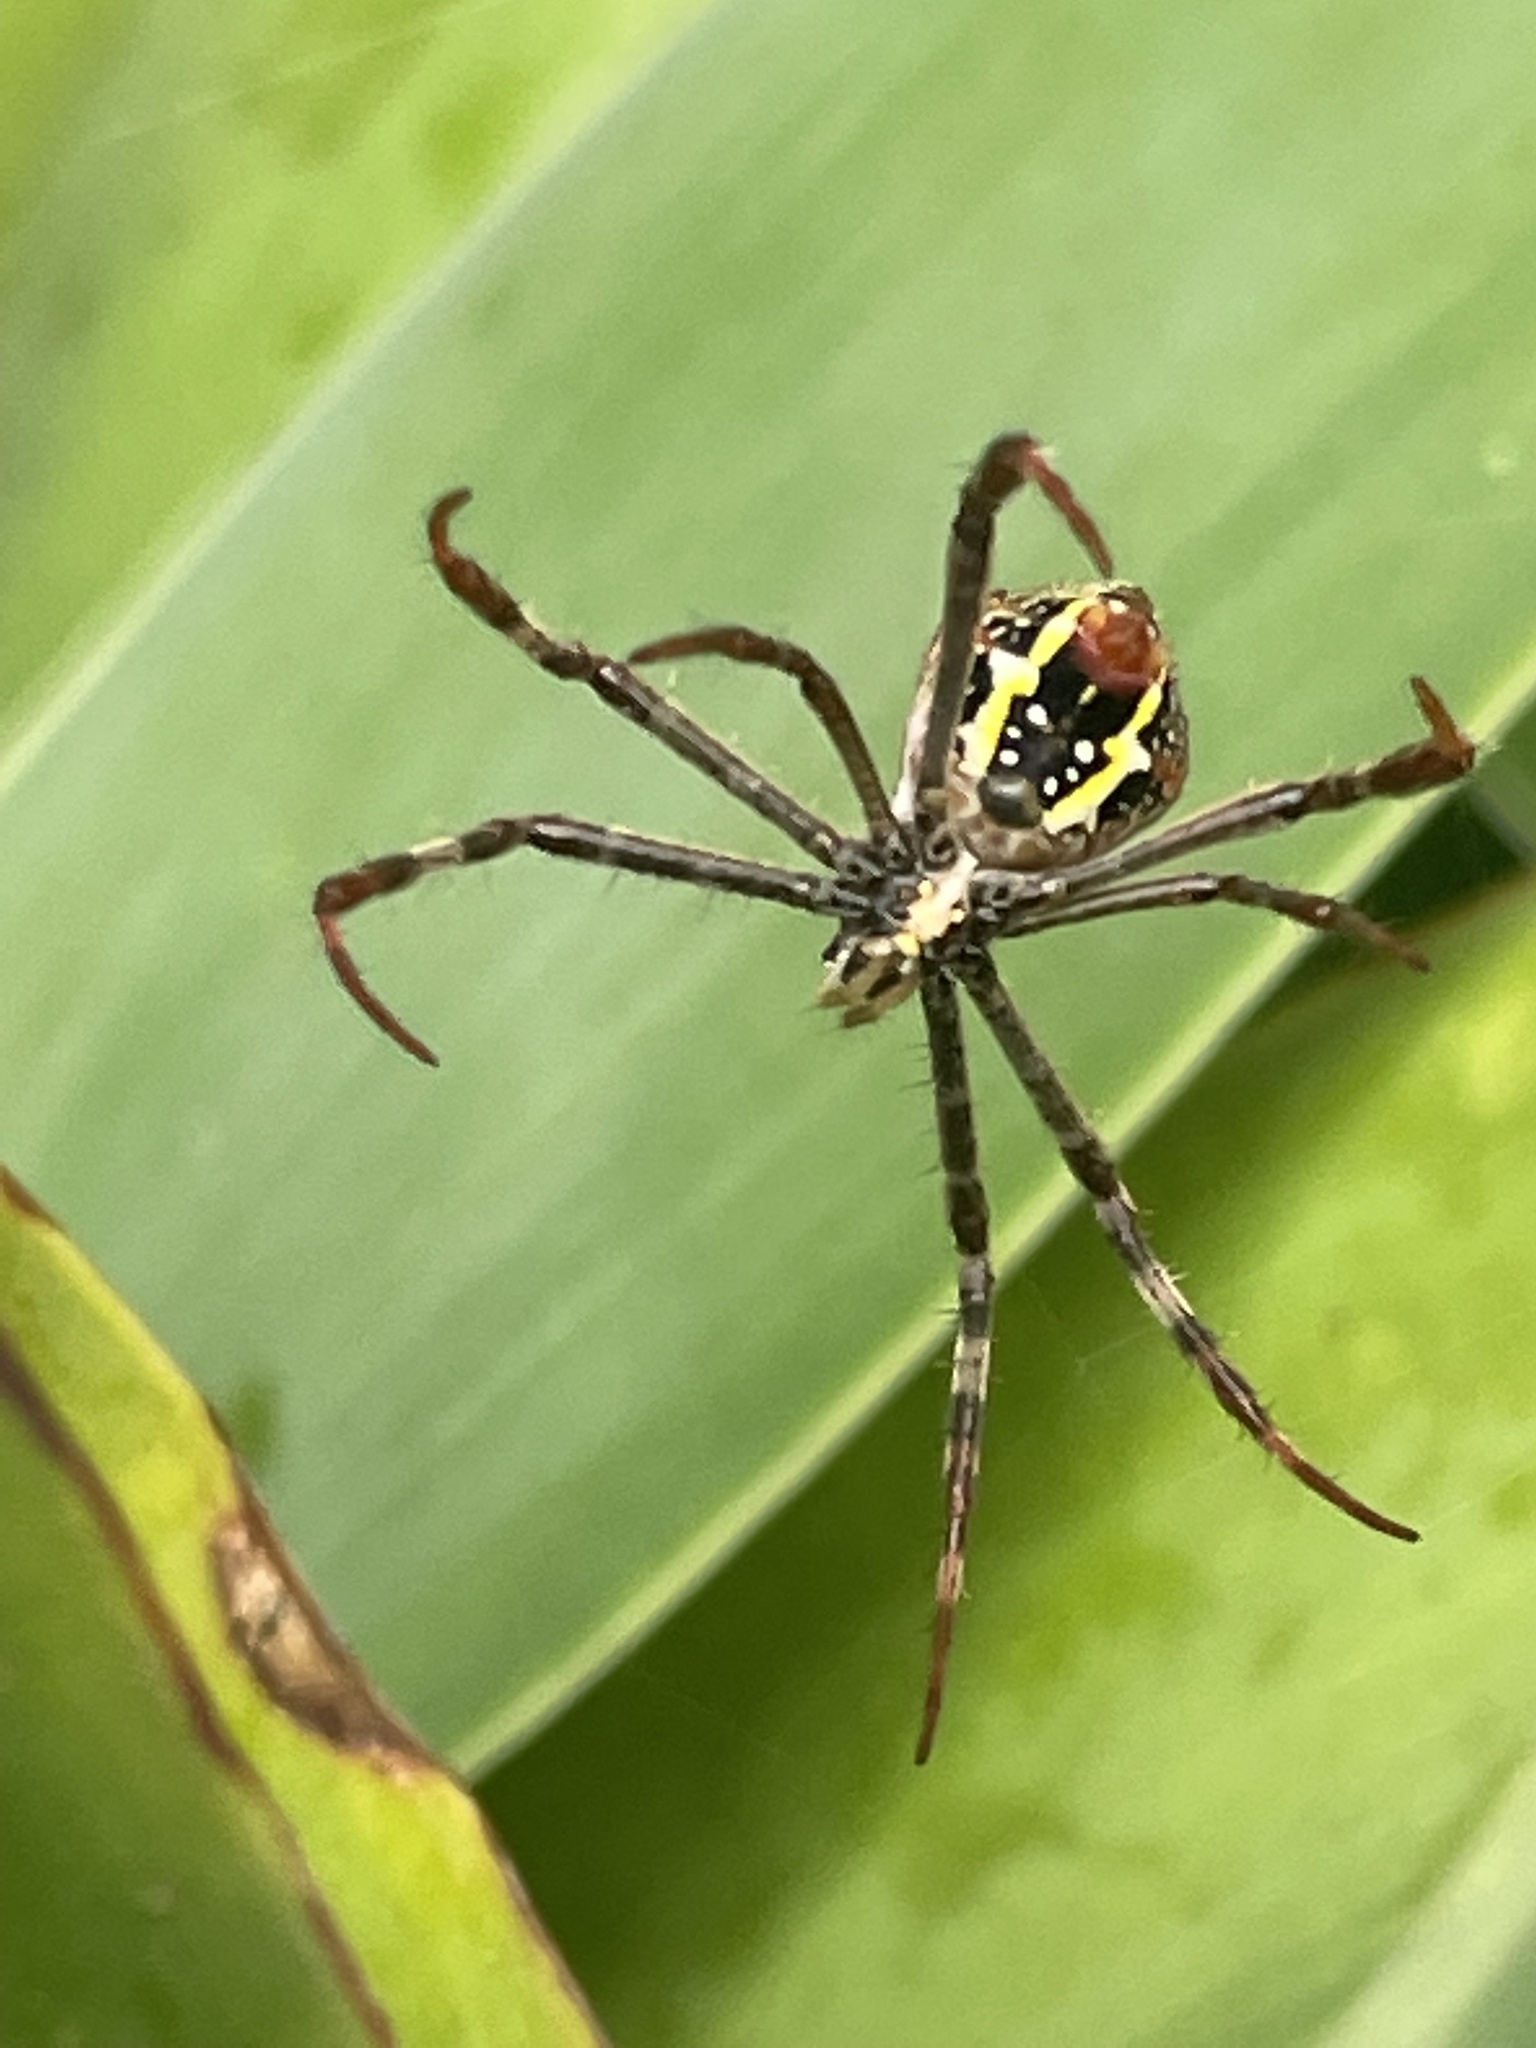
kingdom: Animalia
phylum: Arthropoda
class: Arachnida
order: Araneae
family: Araneidae
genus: Argiope
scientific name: Argiope keyserlingi
